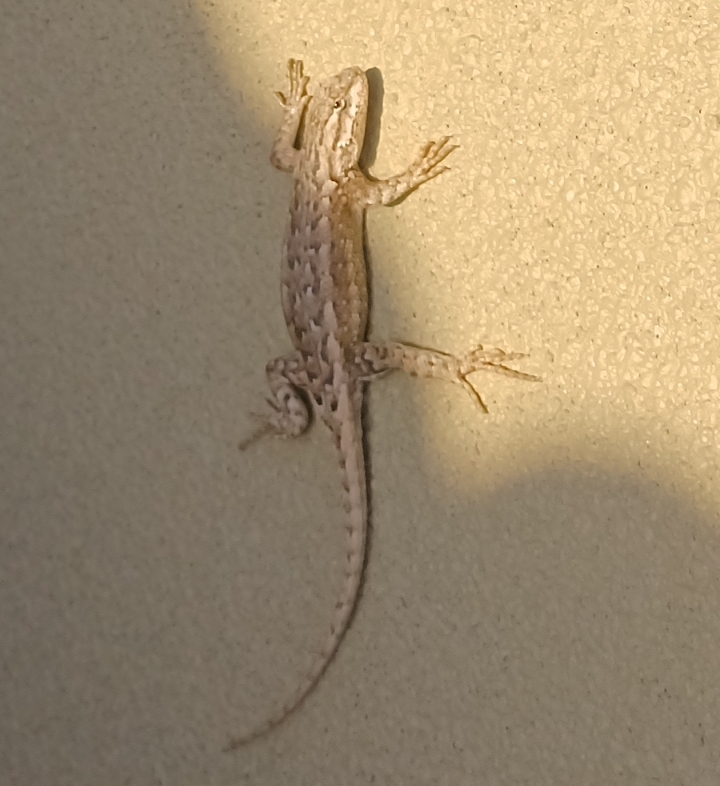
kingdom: Animalia
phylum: Chordata
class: Squamata
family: Phrynosomatidae
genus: Sceloporus
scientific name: Sceloporus consobrinus
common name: Southern prairie lizard
